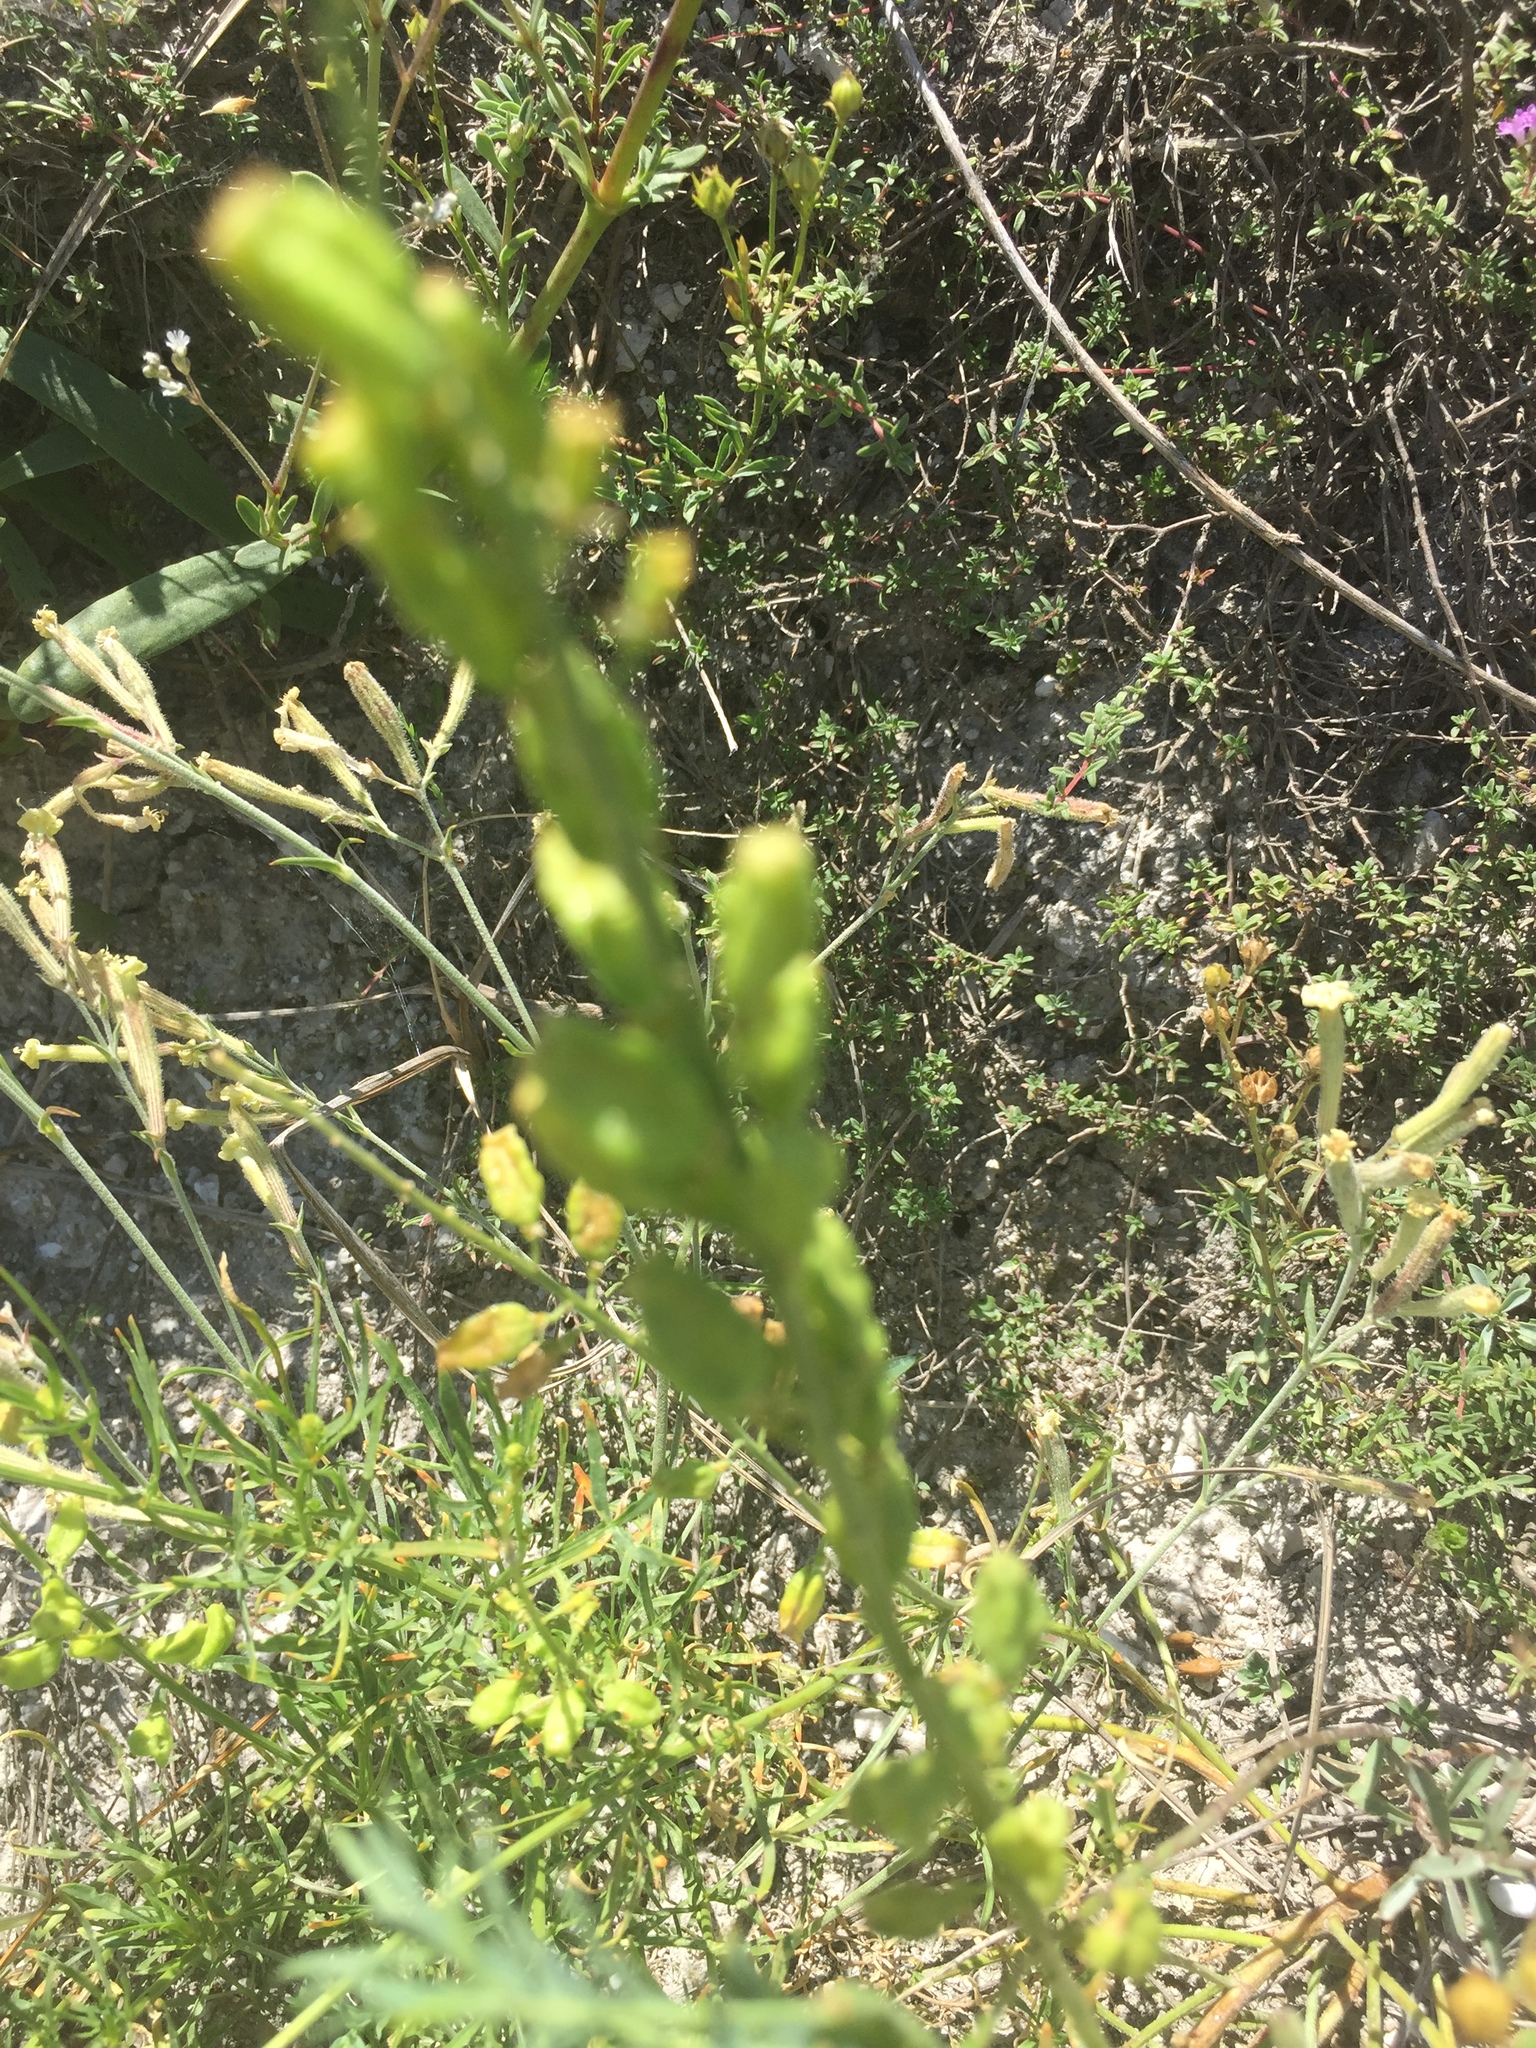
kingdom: Plantae
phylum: Tracheophyta
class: Magnoliopsida
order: Brassicales
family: Resedaceae
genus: Reseda
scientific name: Reseda lutea
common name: Wild mignonette
